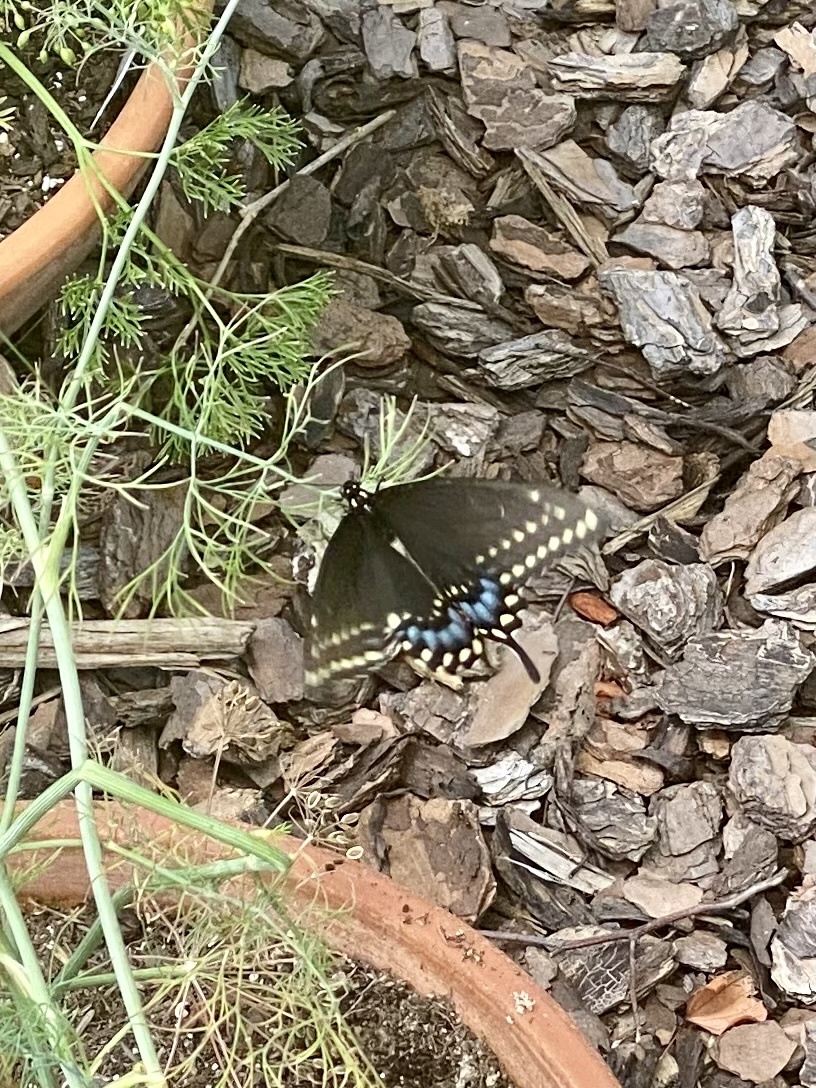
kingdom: Animalia
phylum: Arthropoda
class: Insecta
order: Lepidoptera
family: Papilionidae
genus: Papilio
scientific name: Papilio polyxenes
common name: Black swallowtail
